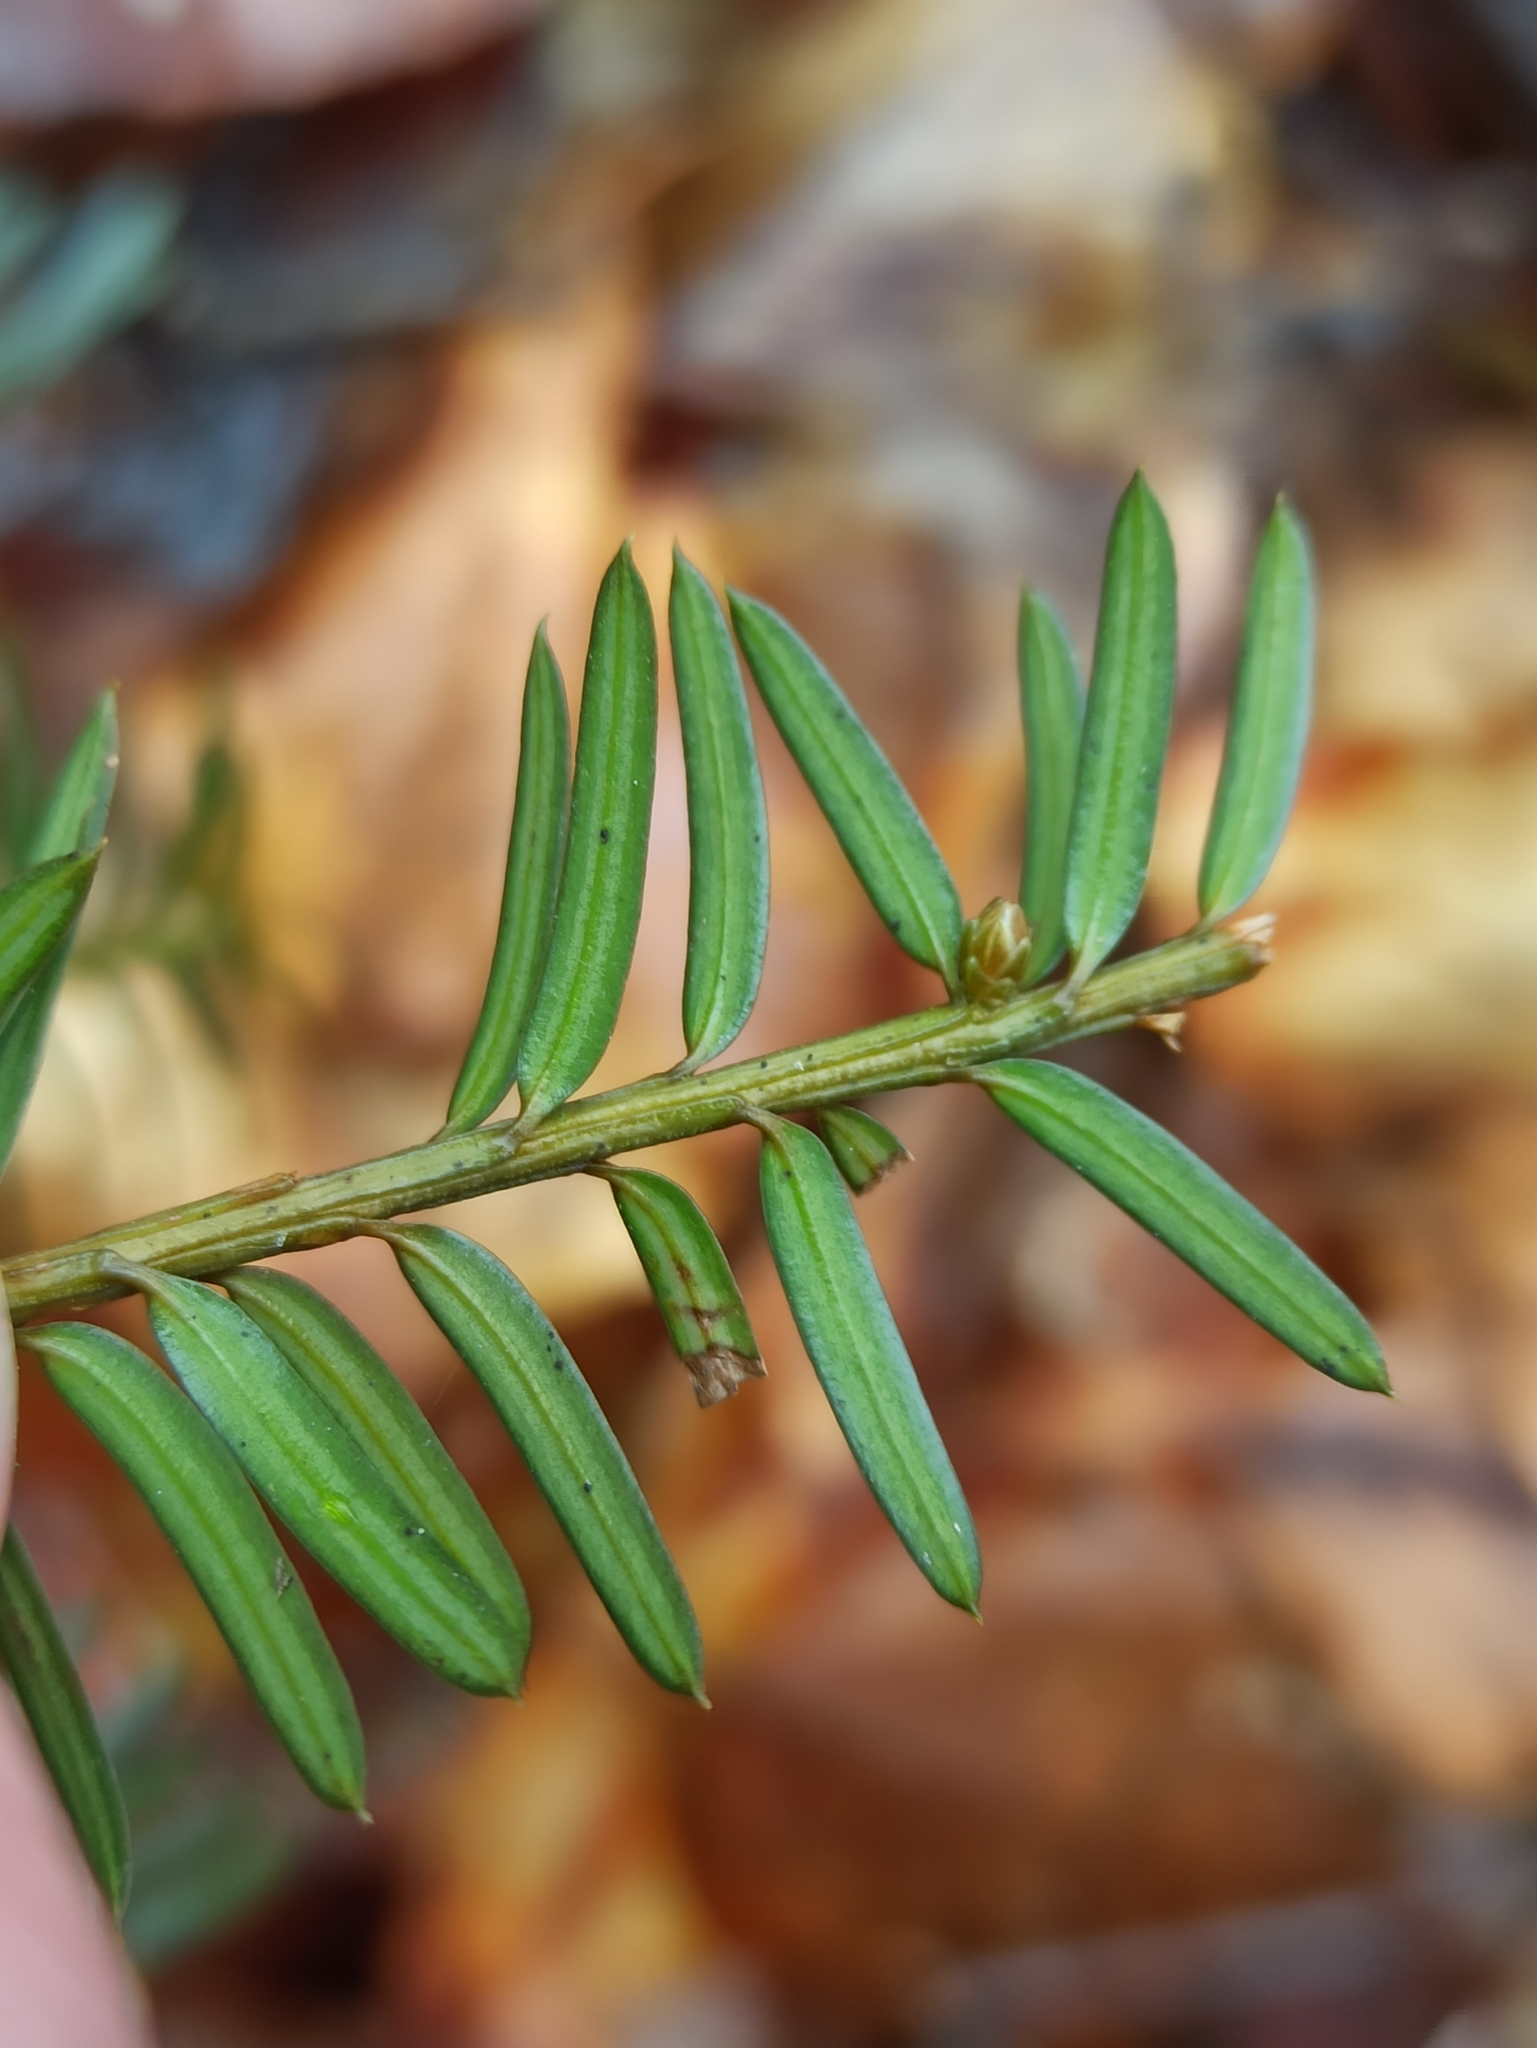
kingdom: Plantae
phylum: Tracheophyta
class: Pinopsida
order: Pinales
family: Taxaceae
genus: Taxus
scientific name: Taxus baccata
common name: Yew
